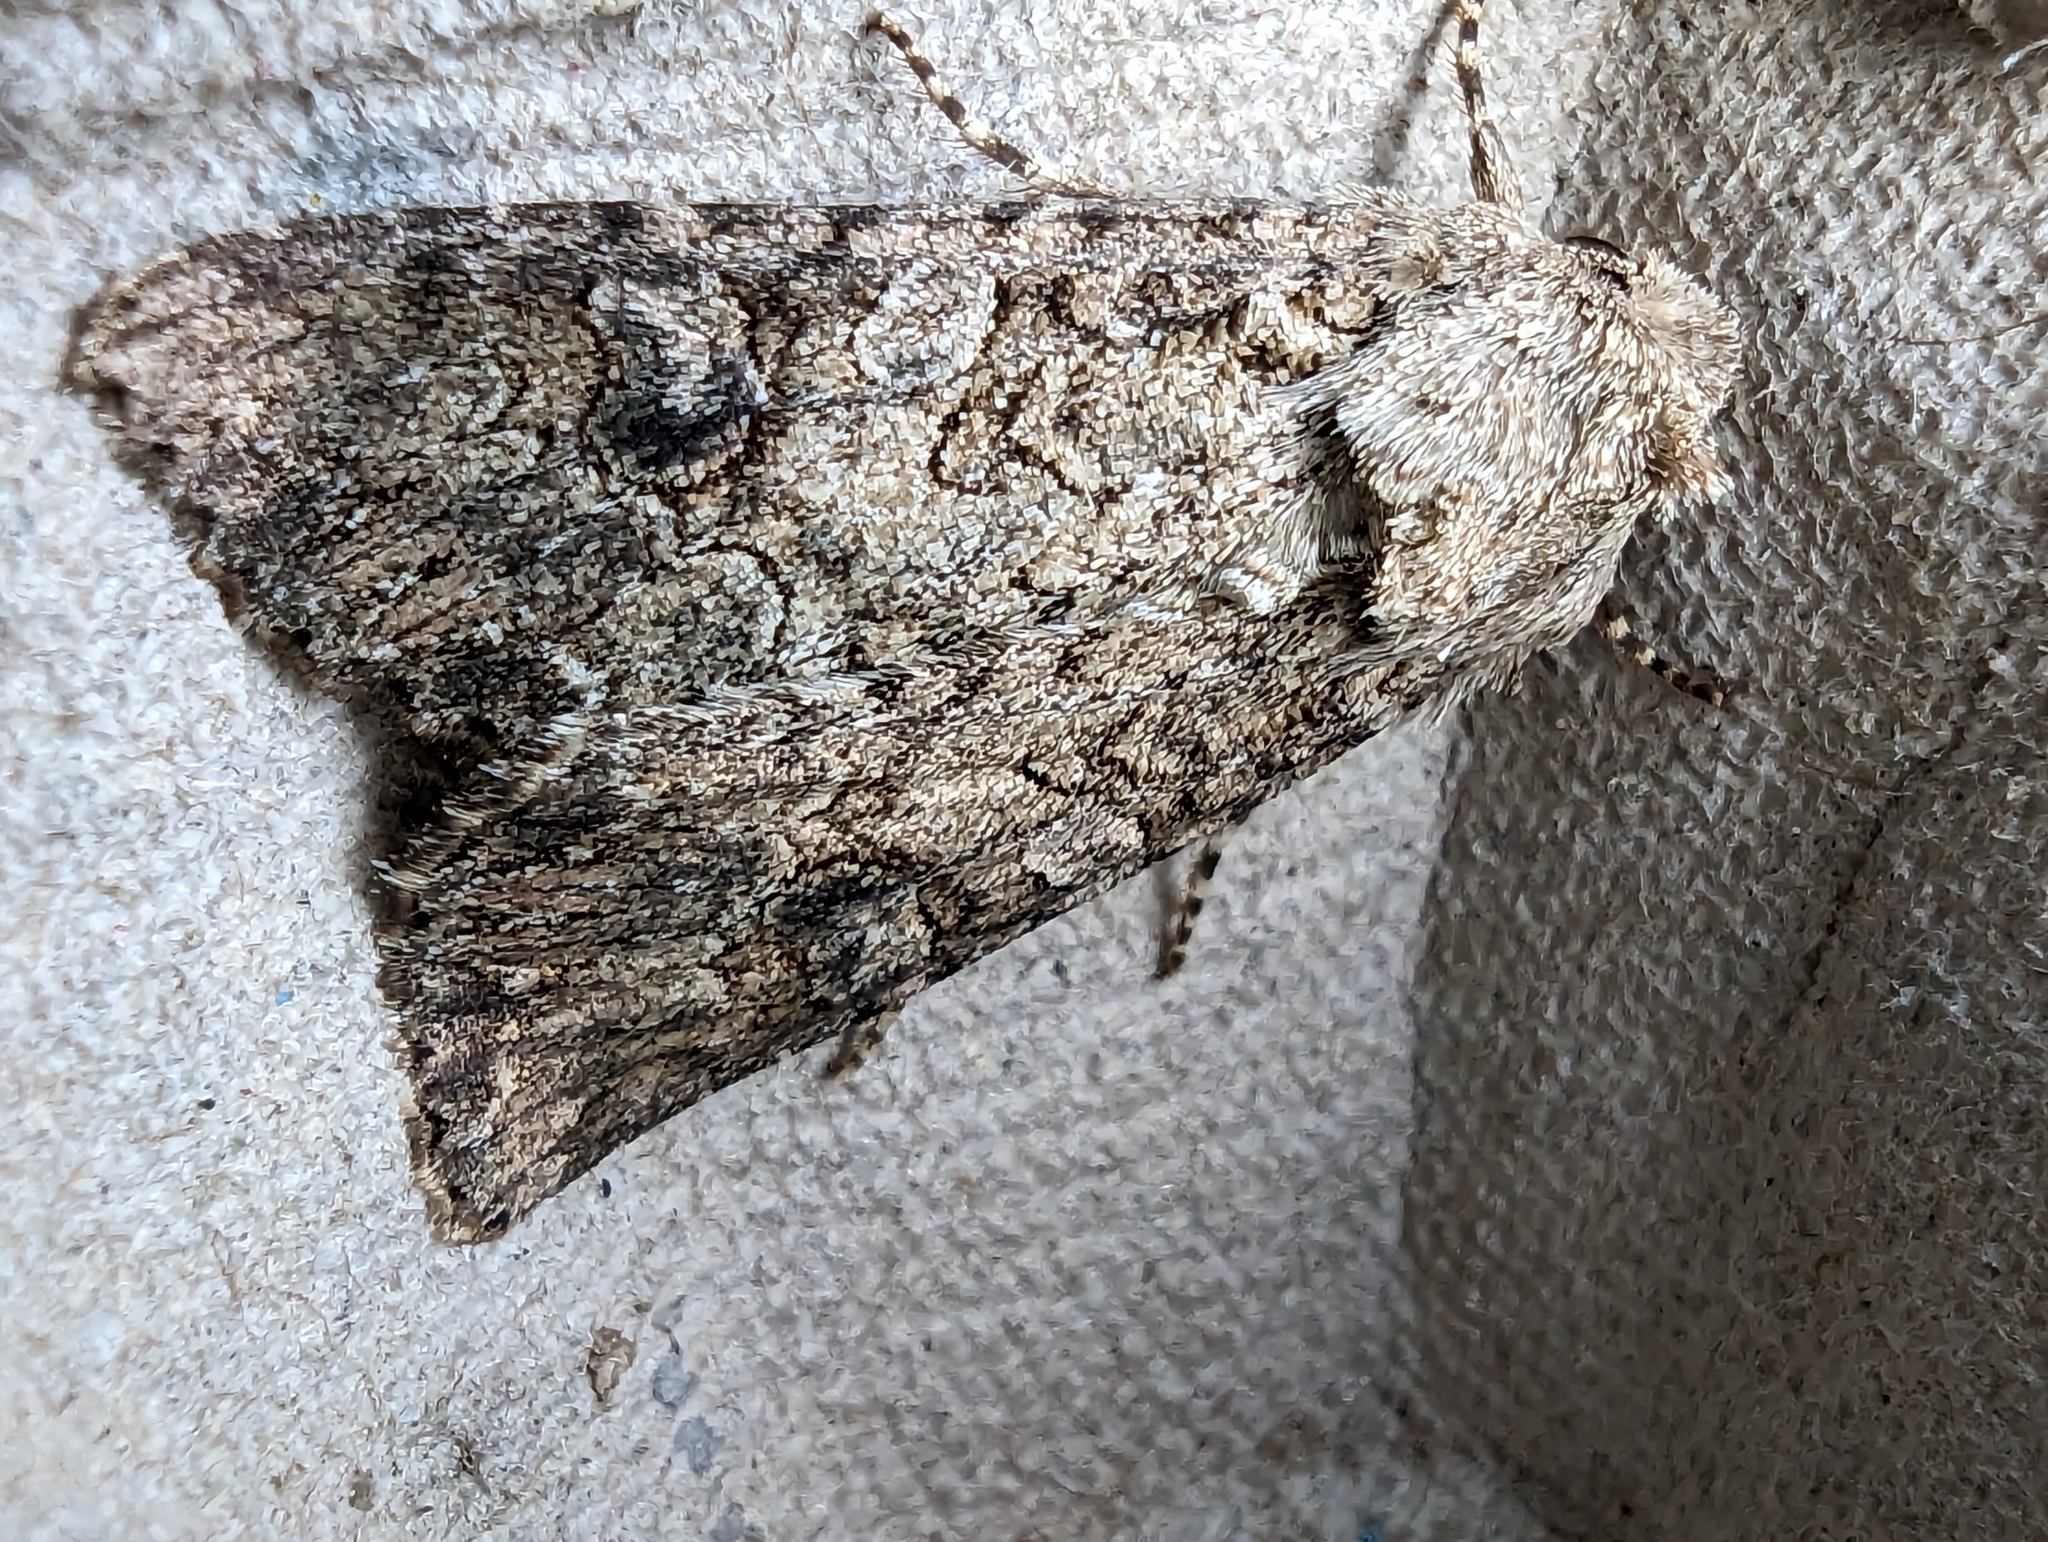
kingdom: Animalia
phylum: Arthropoda
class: Insecta
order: Lepidoptera
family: Noctuidae
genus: Anarta
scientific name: Anarta trifolii
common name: Clover cutworm moth
